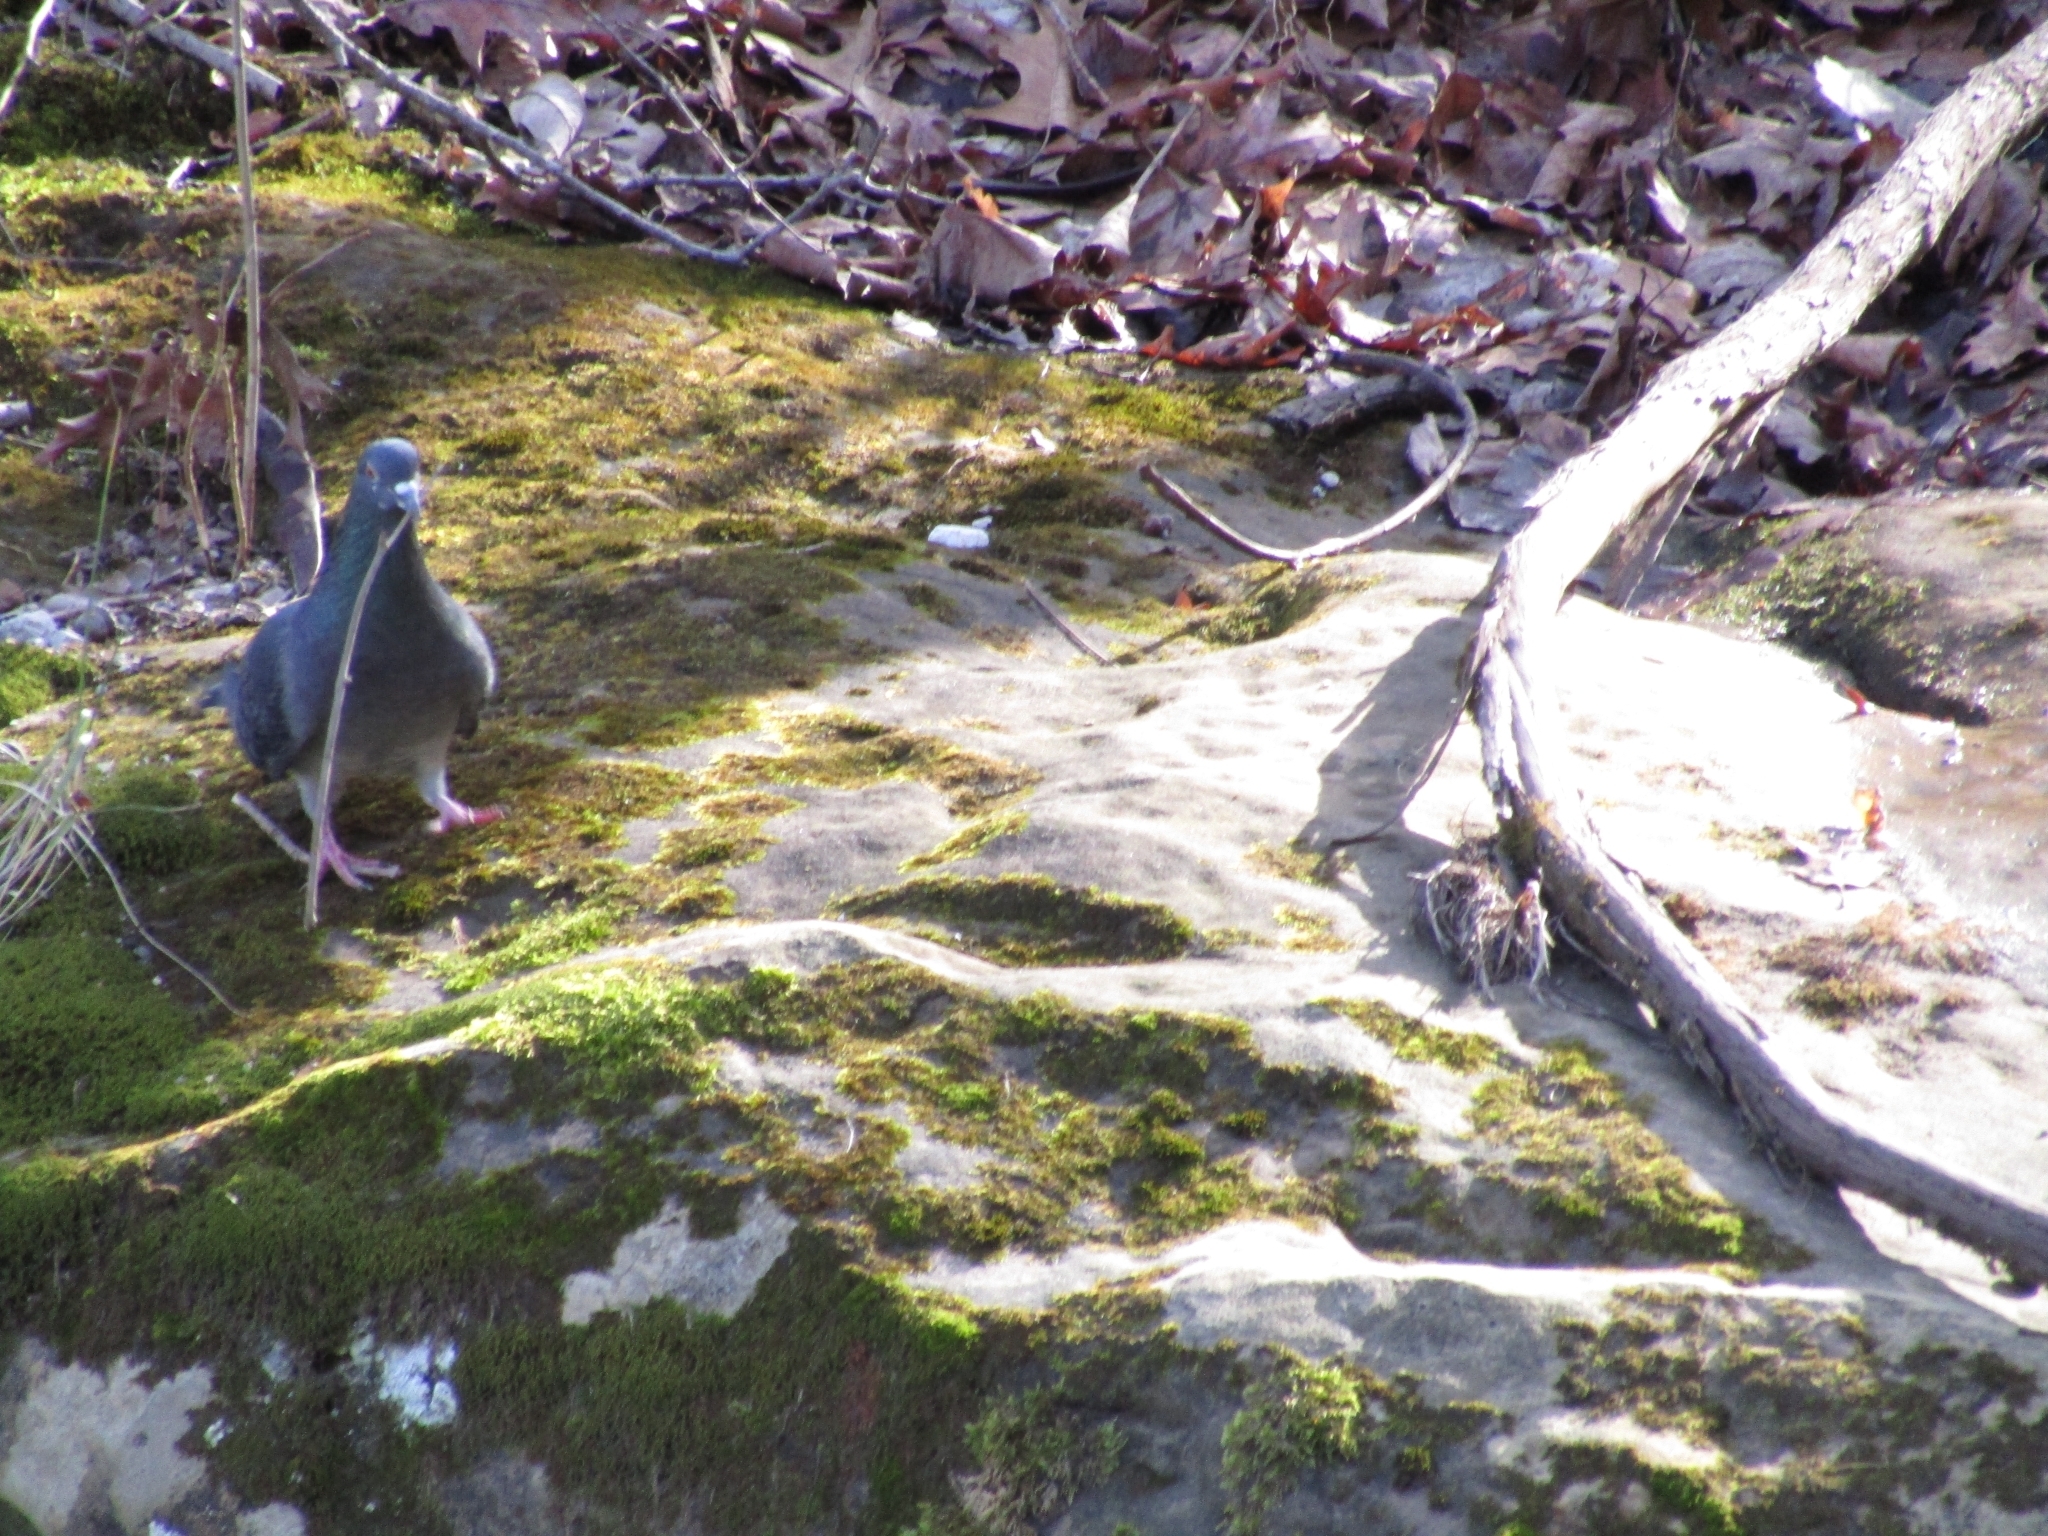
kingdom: Animalia
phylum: Chordata
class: Aves
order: Columbiformes
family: Columbidae
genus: Columba
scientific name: Columba livia
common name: Rock pigeon
